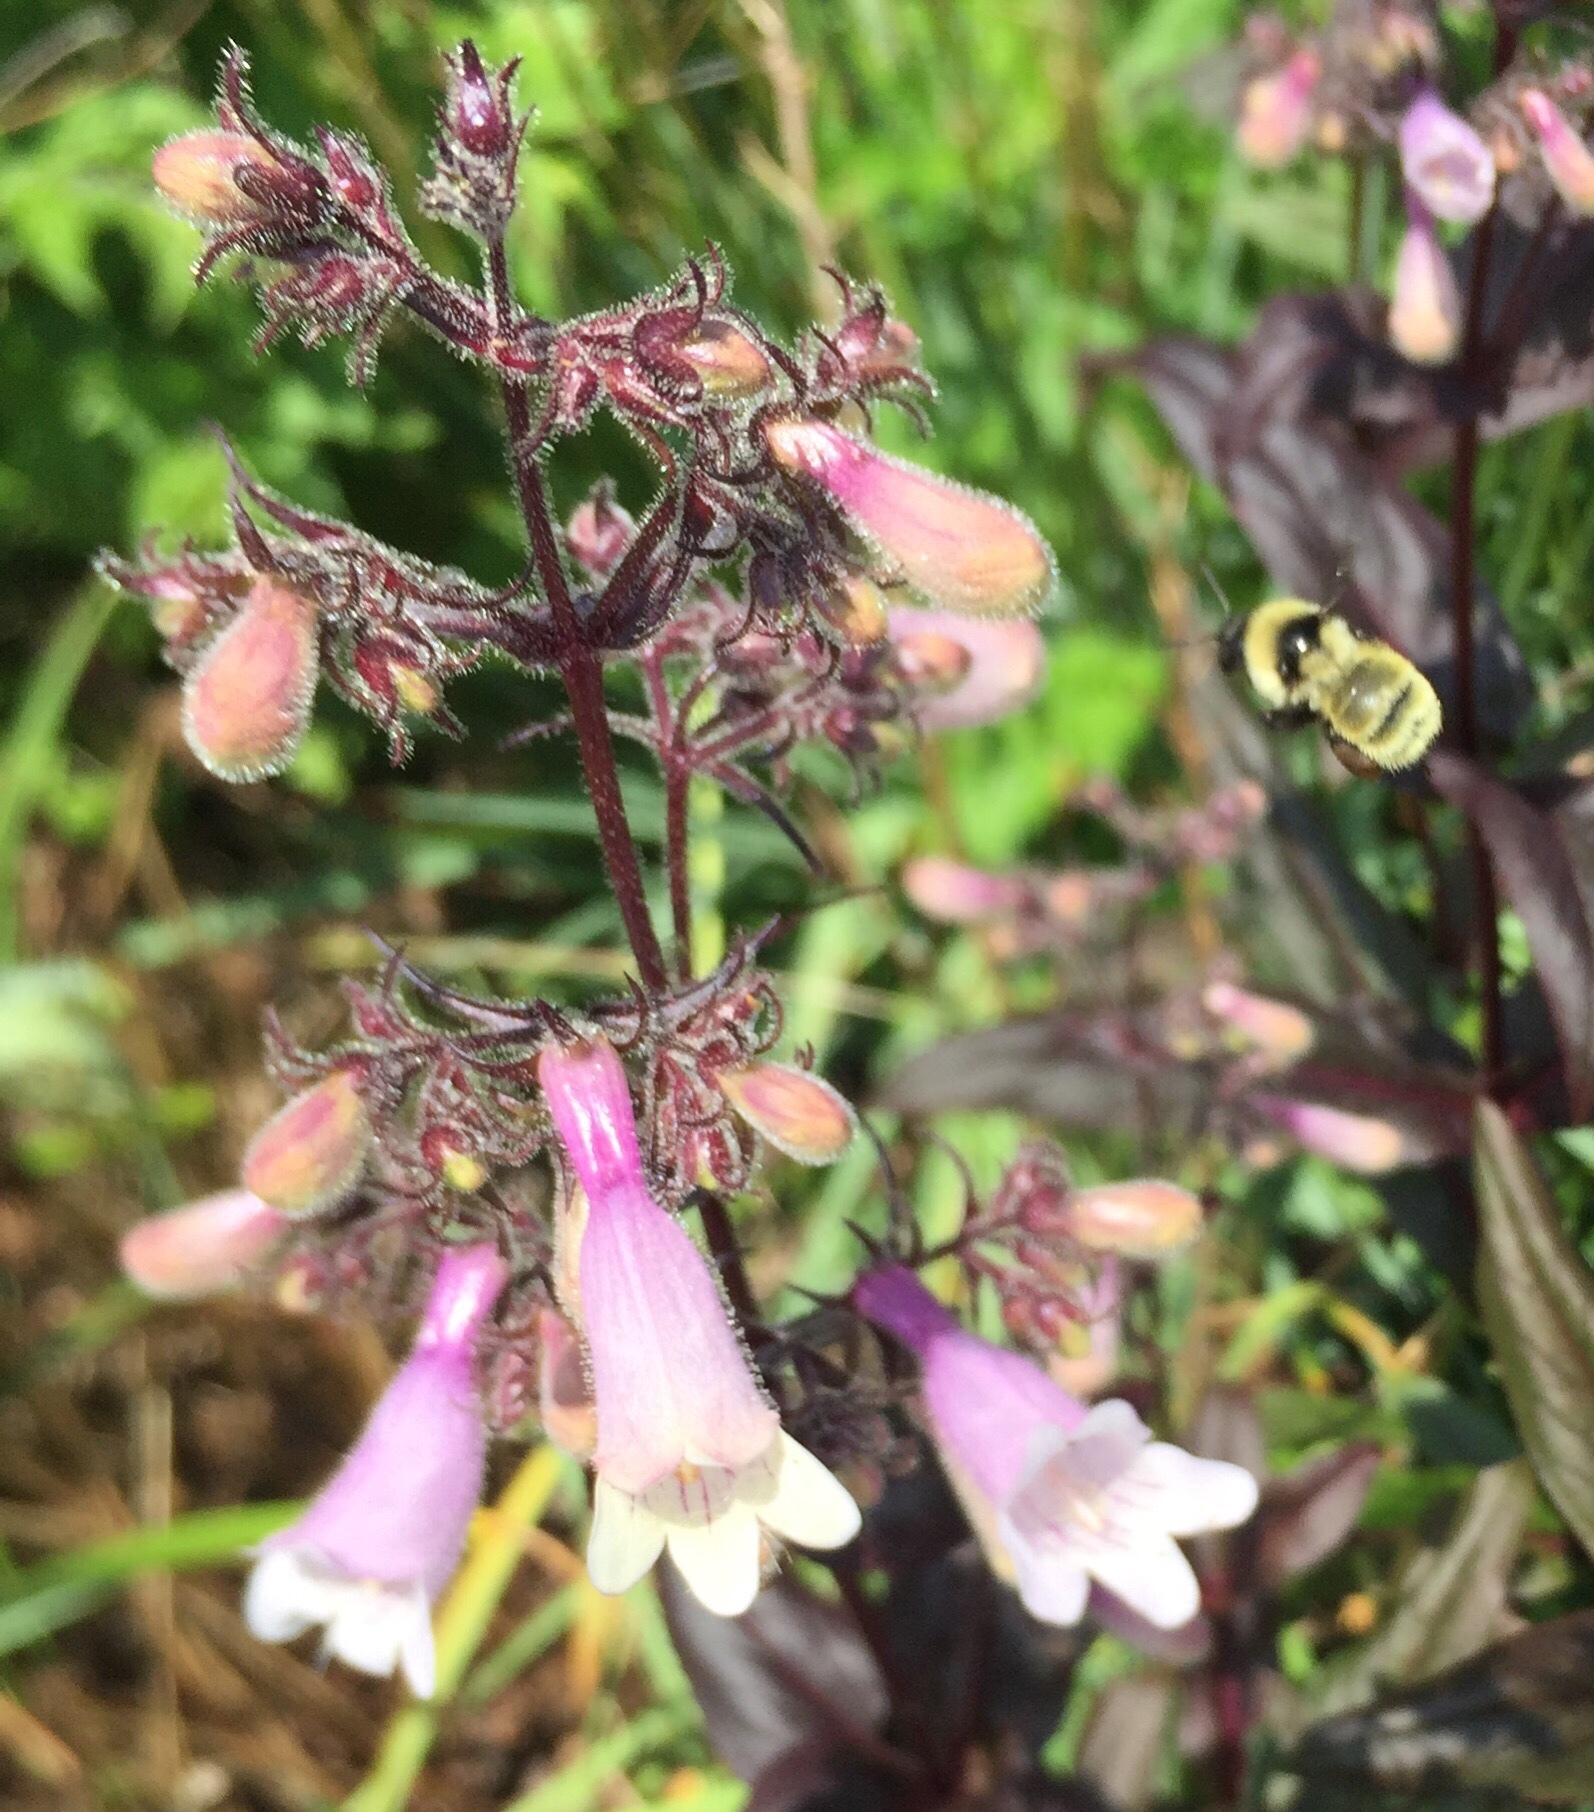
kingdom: Animalia
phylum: Arthropoda
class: Insecta
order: Hymenoptera
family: Apidae
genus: Bombus
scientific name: Bombus fervidus
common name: Yellow bumble bee
